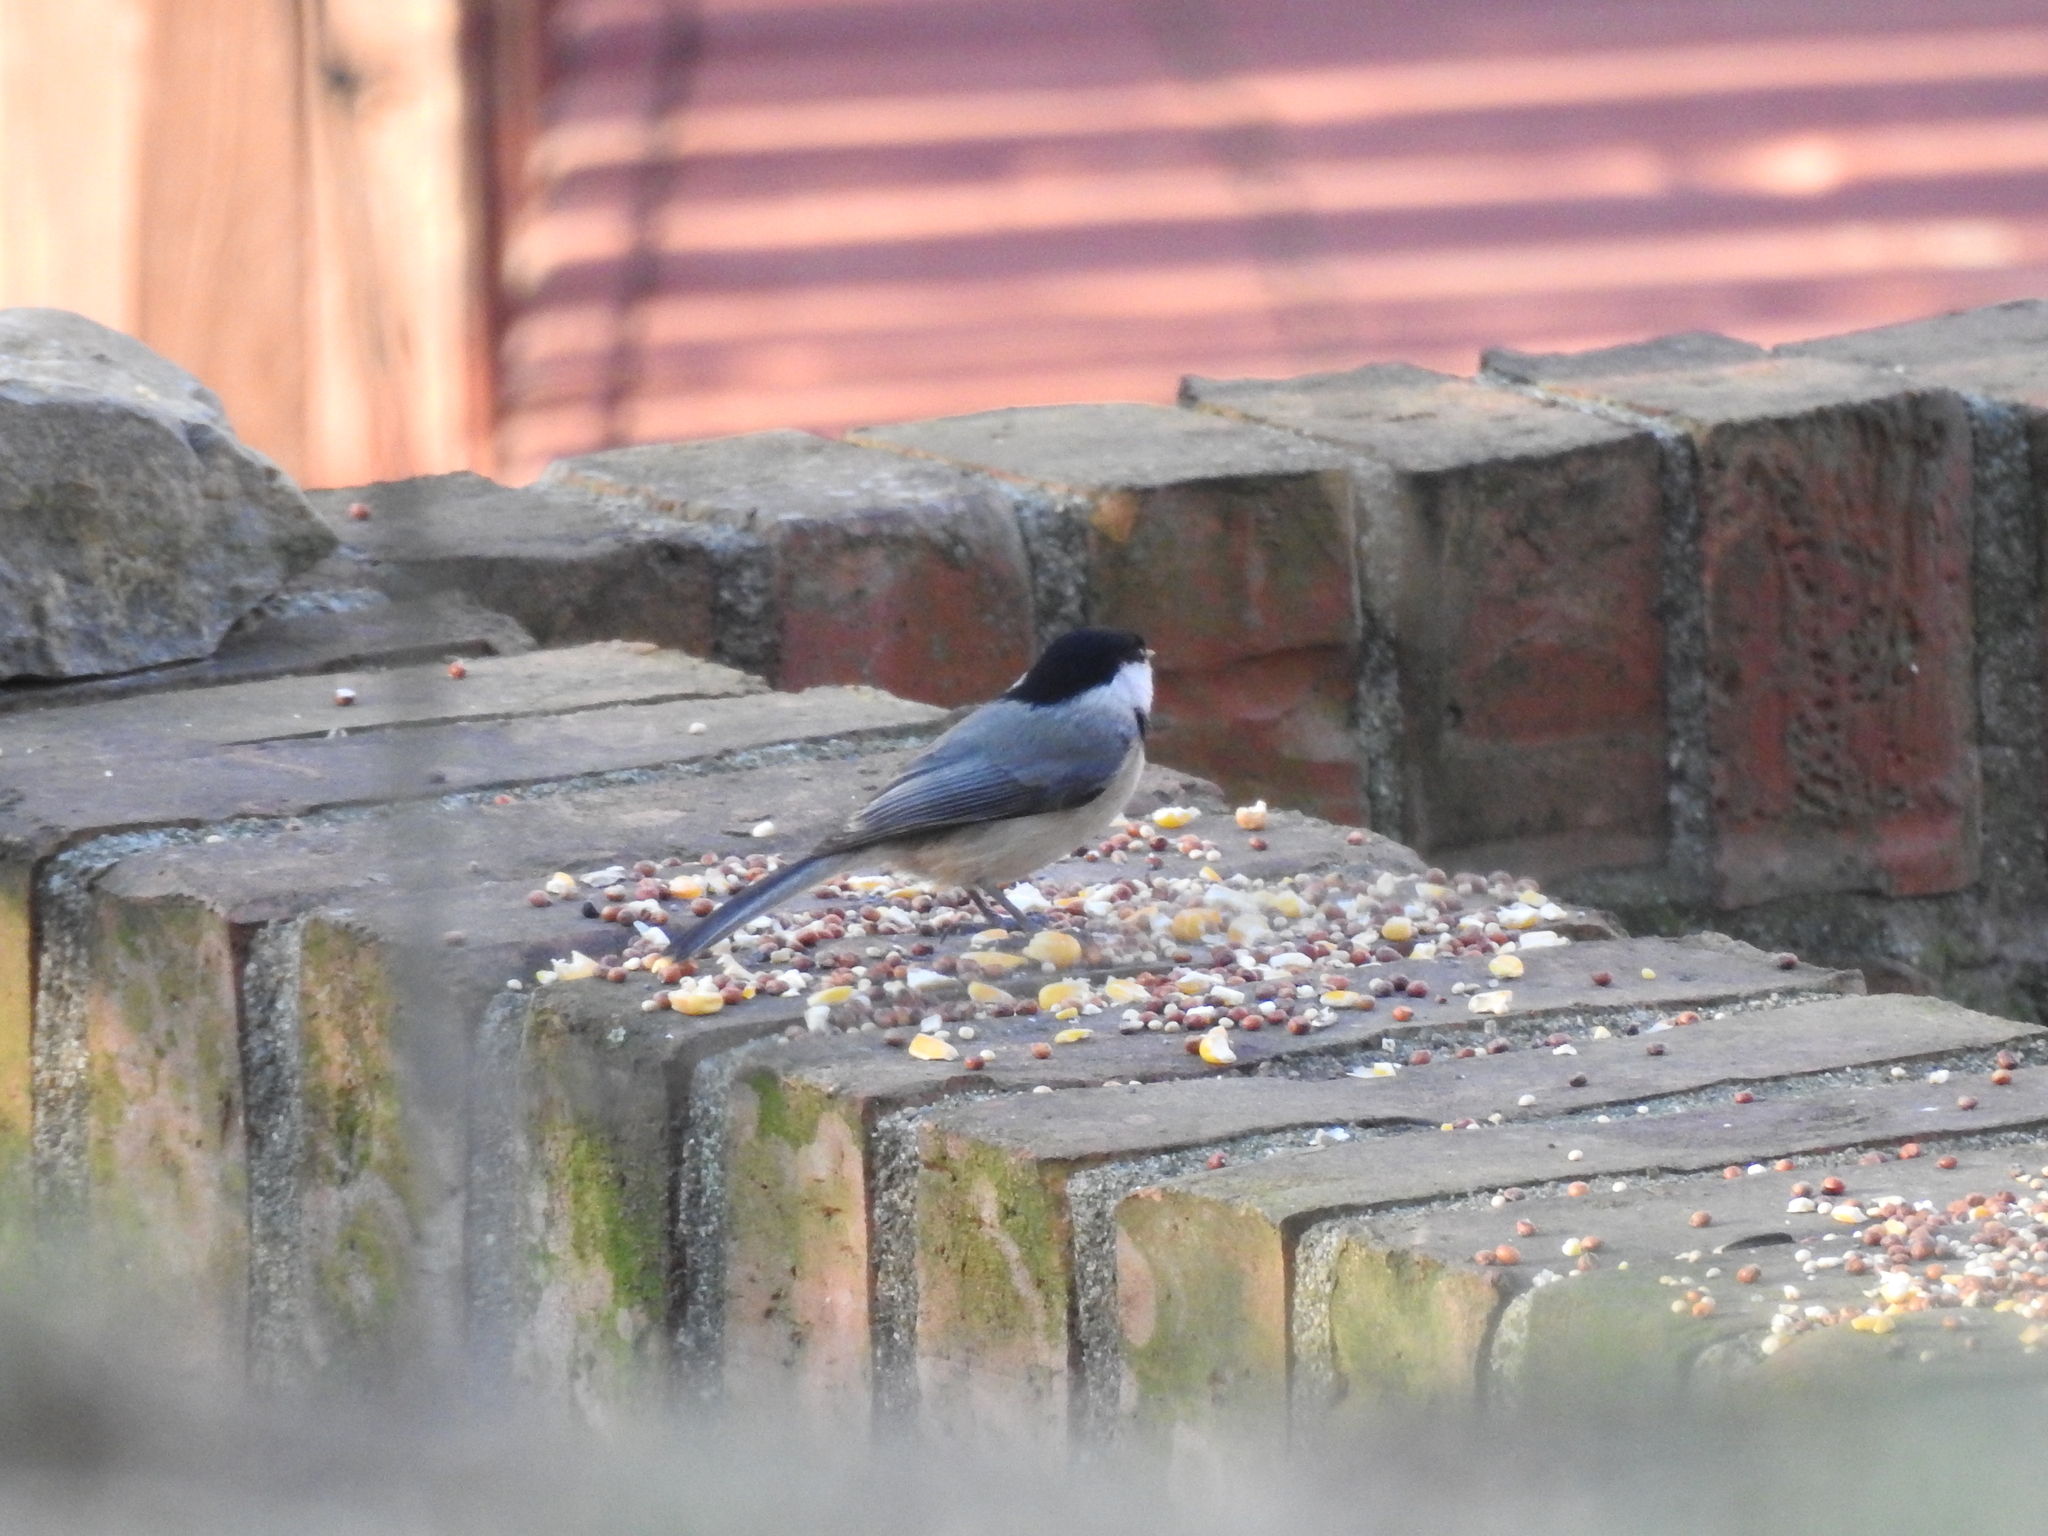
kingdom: Animalia
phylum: Chordata
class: Aves
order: Passeriformes
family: Paridae
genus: Poecile
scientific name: Poecile carolinensis
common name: Carolina chickadee
